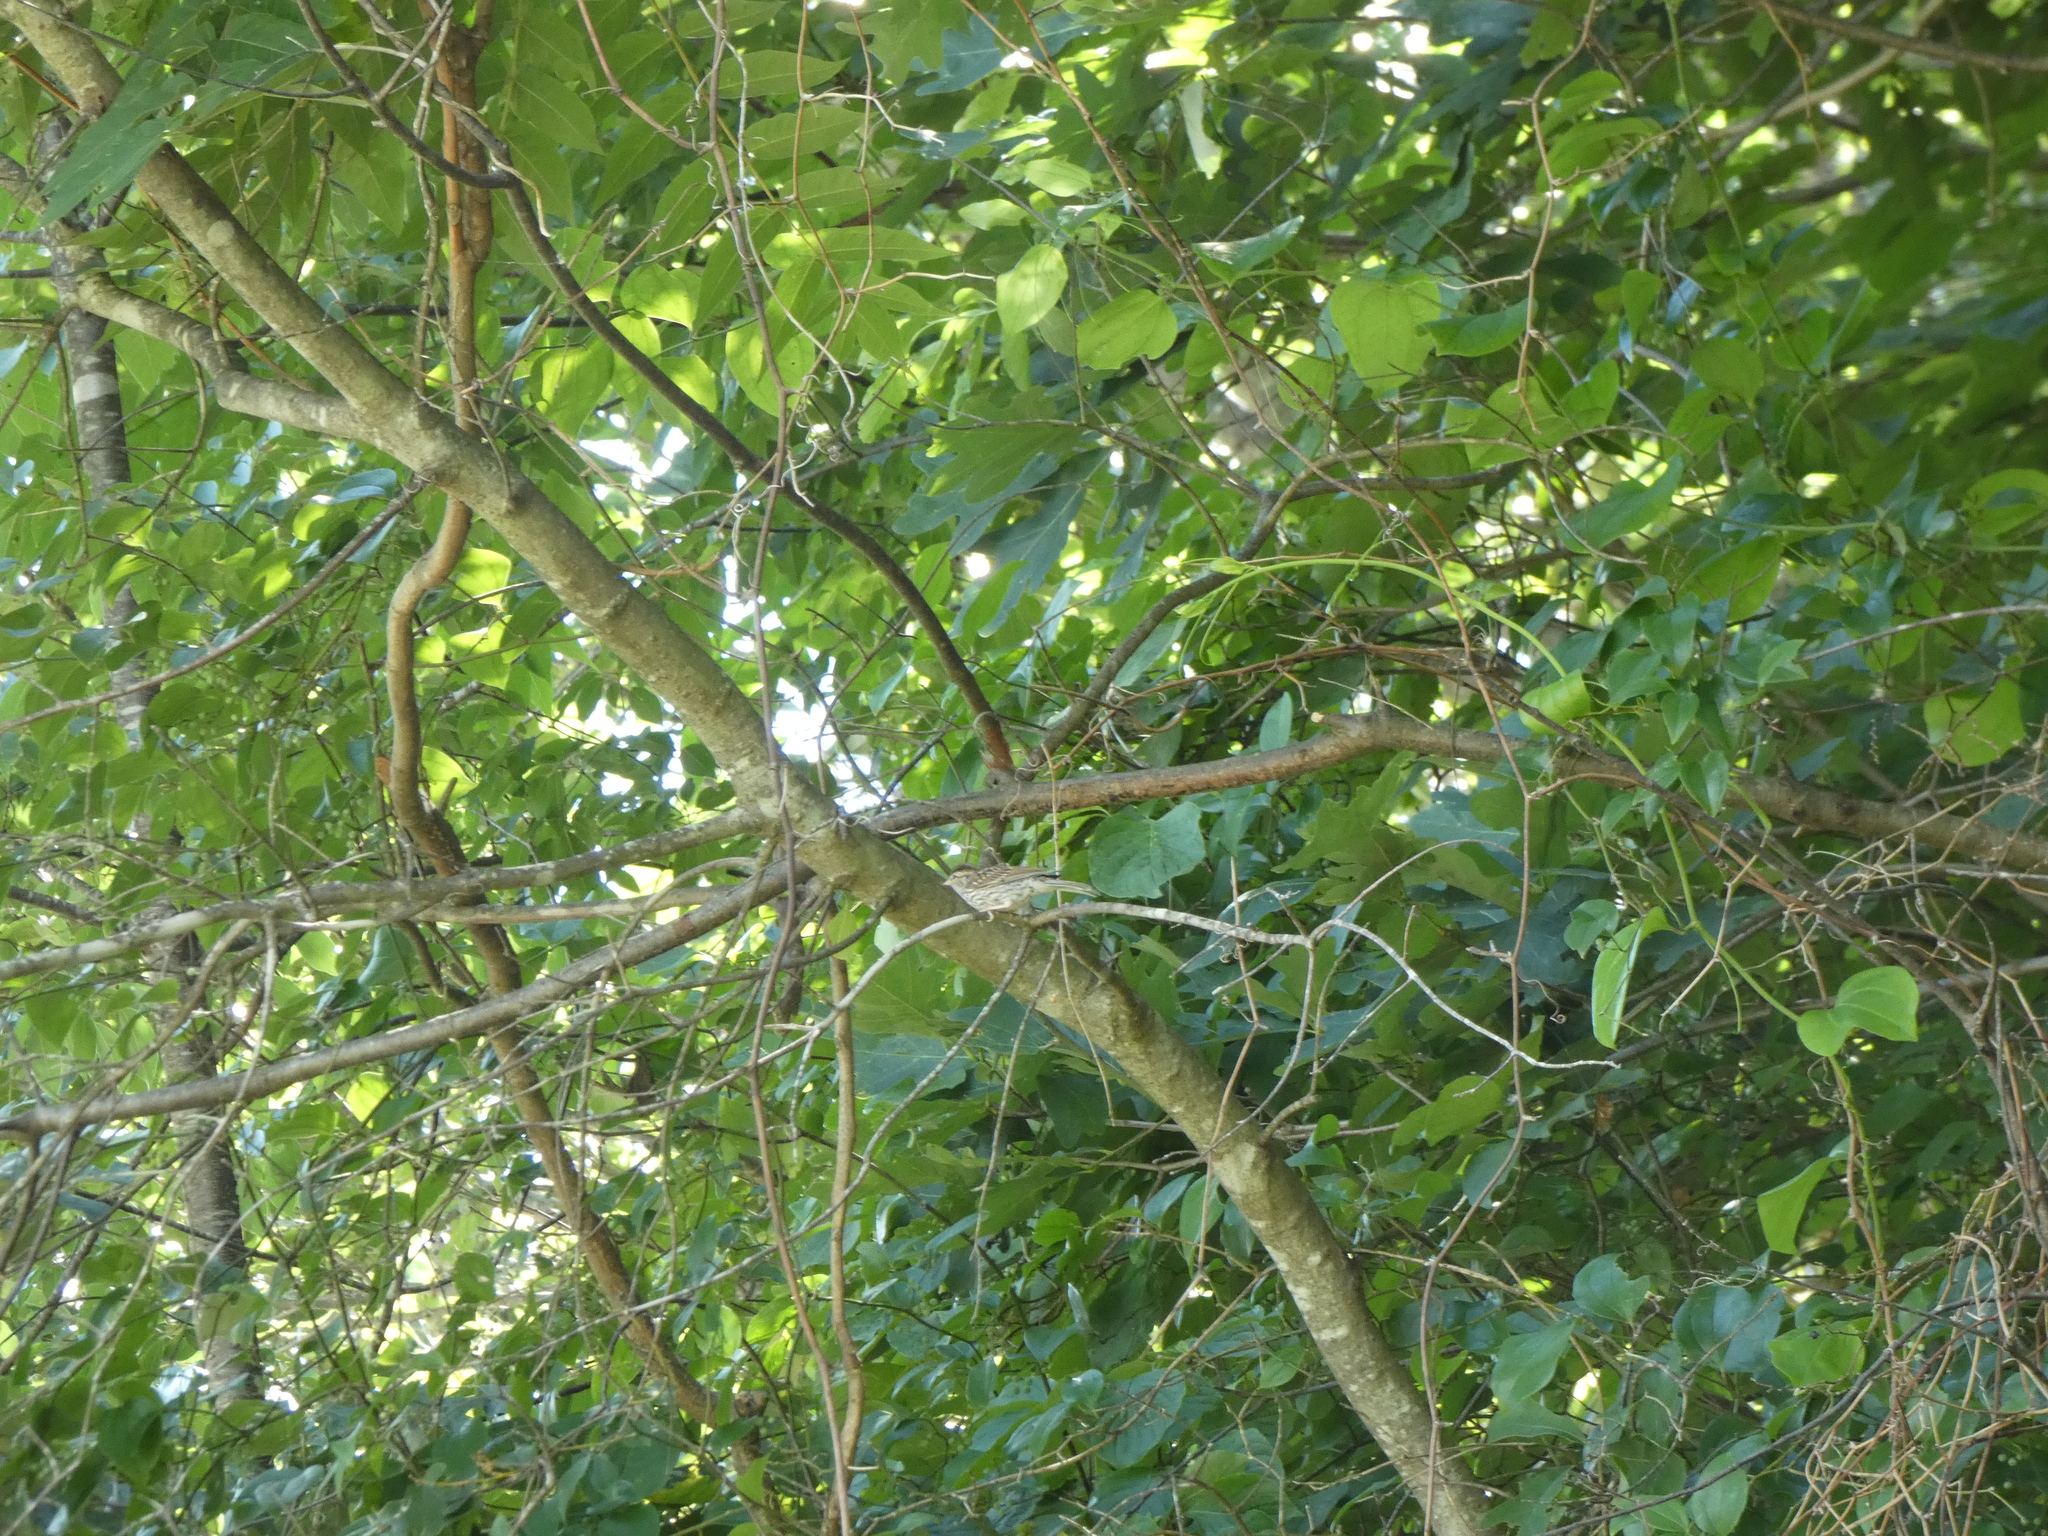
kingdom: Animalia
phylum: Chordata
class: Aves
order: Passeriformes
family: Passerellidae
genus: Spizella
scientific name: Spizella passerina
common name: Chipping sparrow
